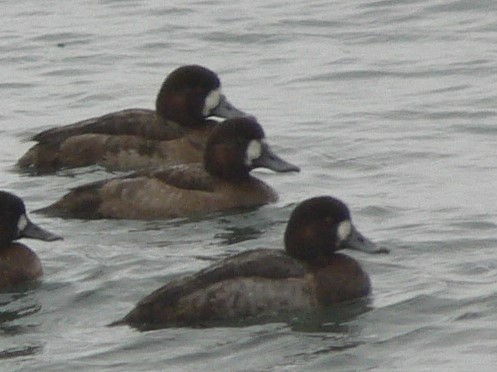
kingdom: Animalia
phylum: Chordata
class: Aves
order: Anseriformes
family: Anatidae
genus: Aythya
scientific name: Aythya marila
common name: Greater scaup
